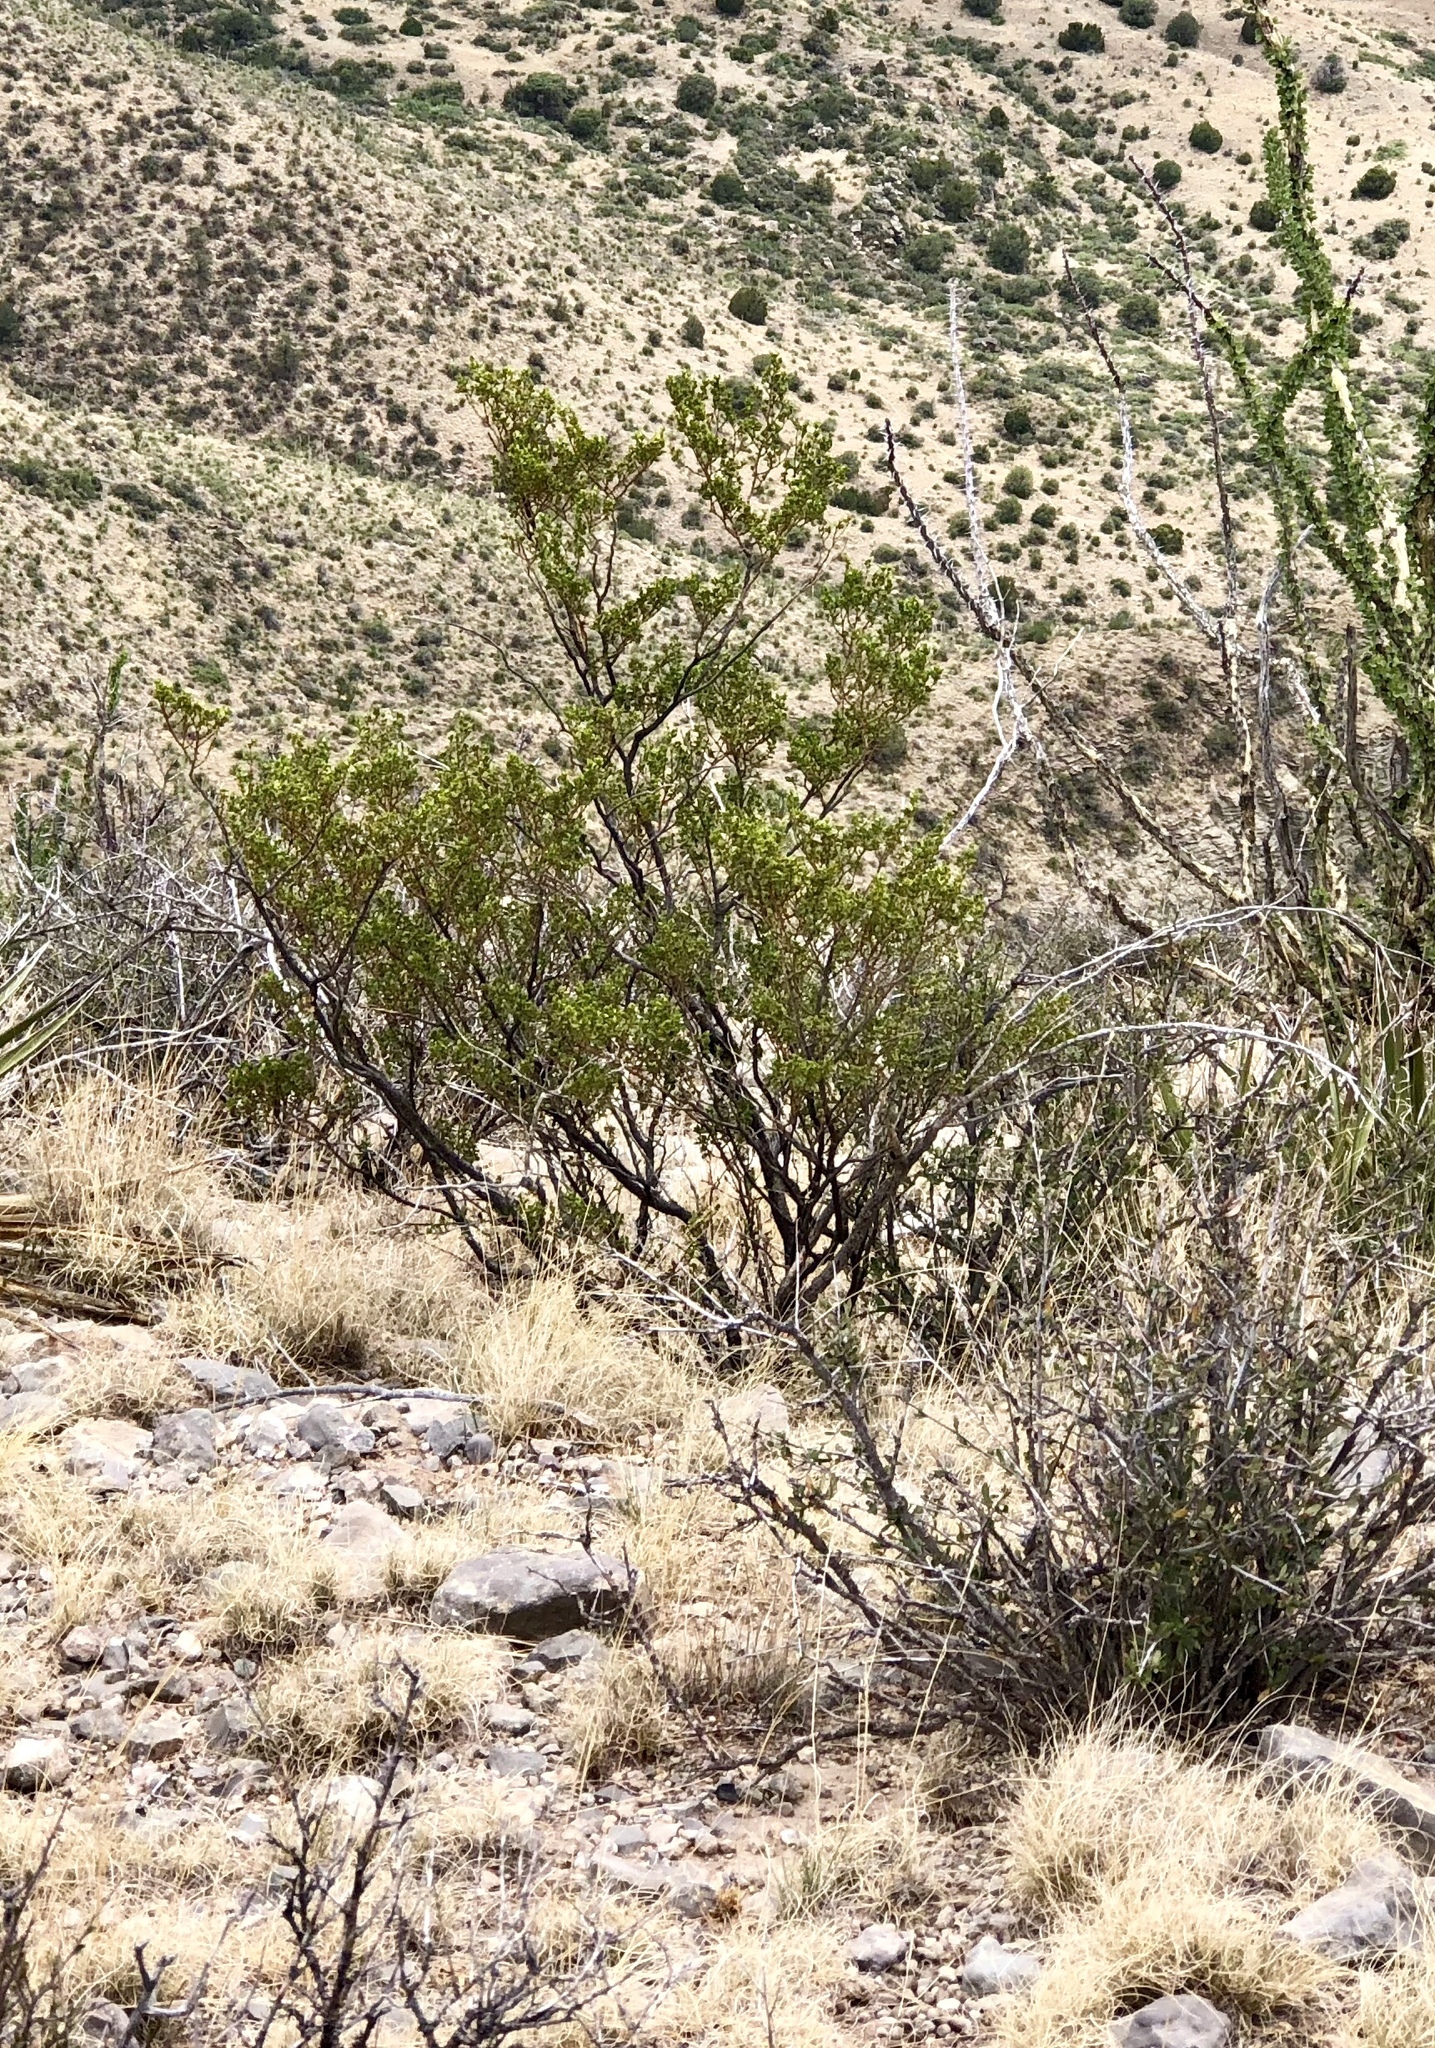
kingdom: Plantae
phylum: Tracheophyta
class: Magnoliopsida
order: Zygophyllales
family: Zygophyllaceae
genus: Larrea
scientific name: Larrea tridentata
